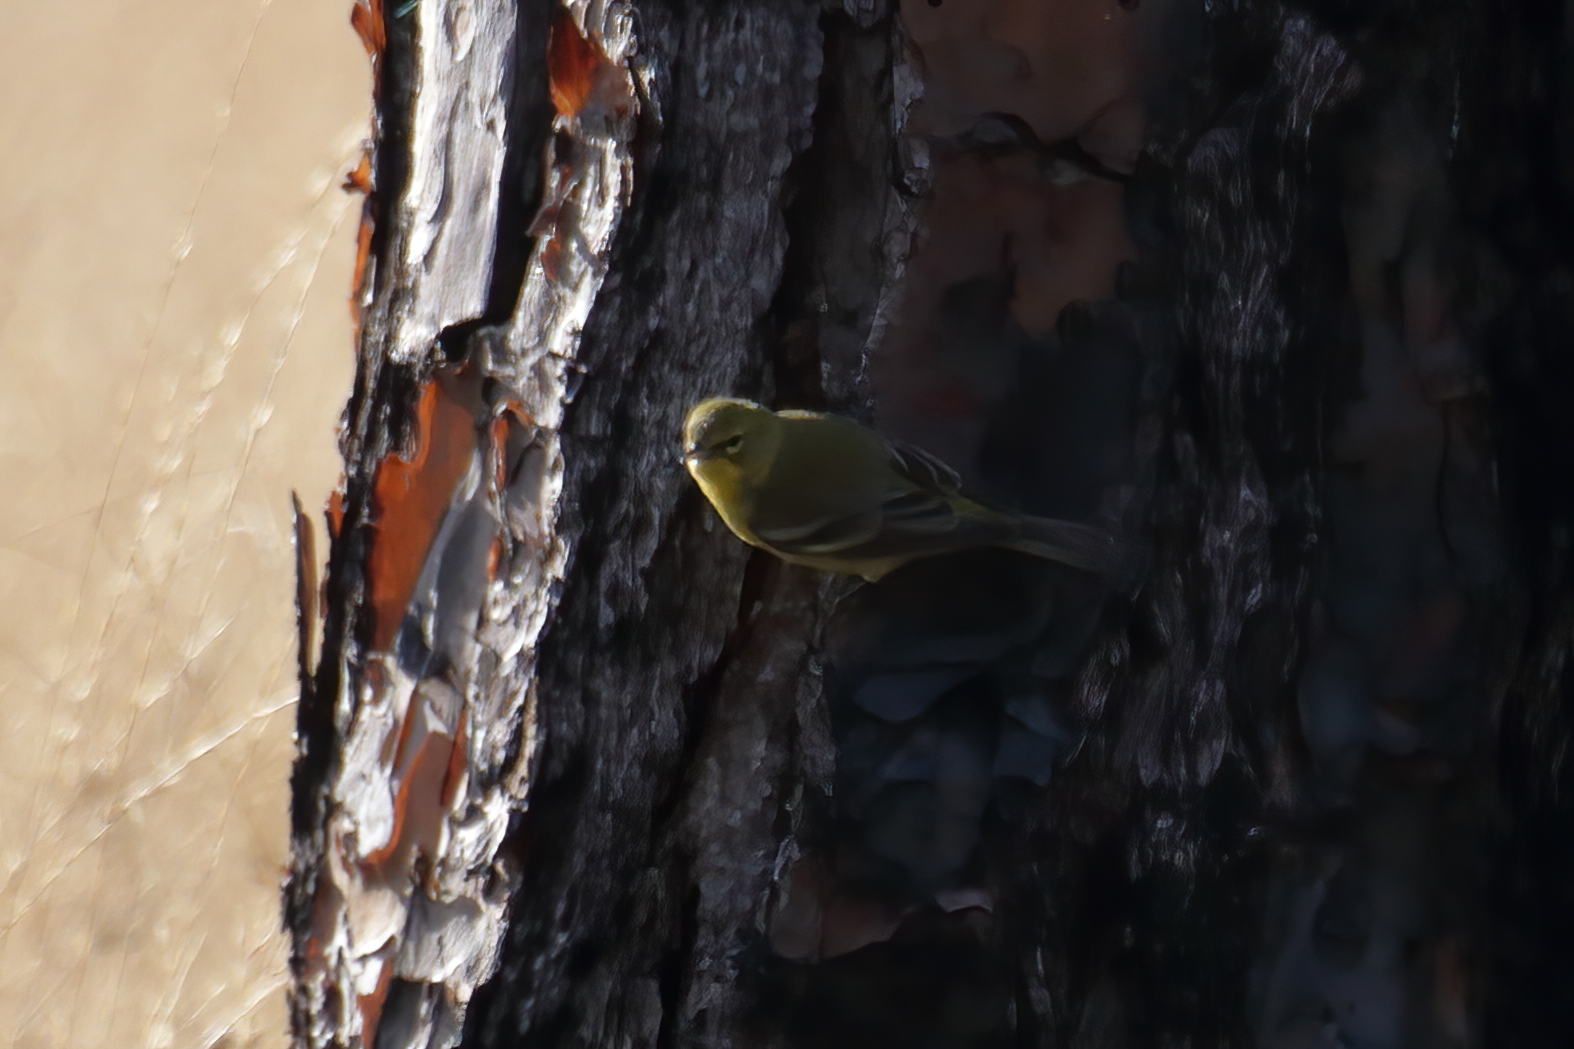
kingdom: Animalia
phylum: Chordata
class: Aves
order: Passeriformes
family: Parulidae
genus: Setophaga
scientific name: Setophaga pinus
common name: Pine warbler
